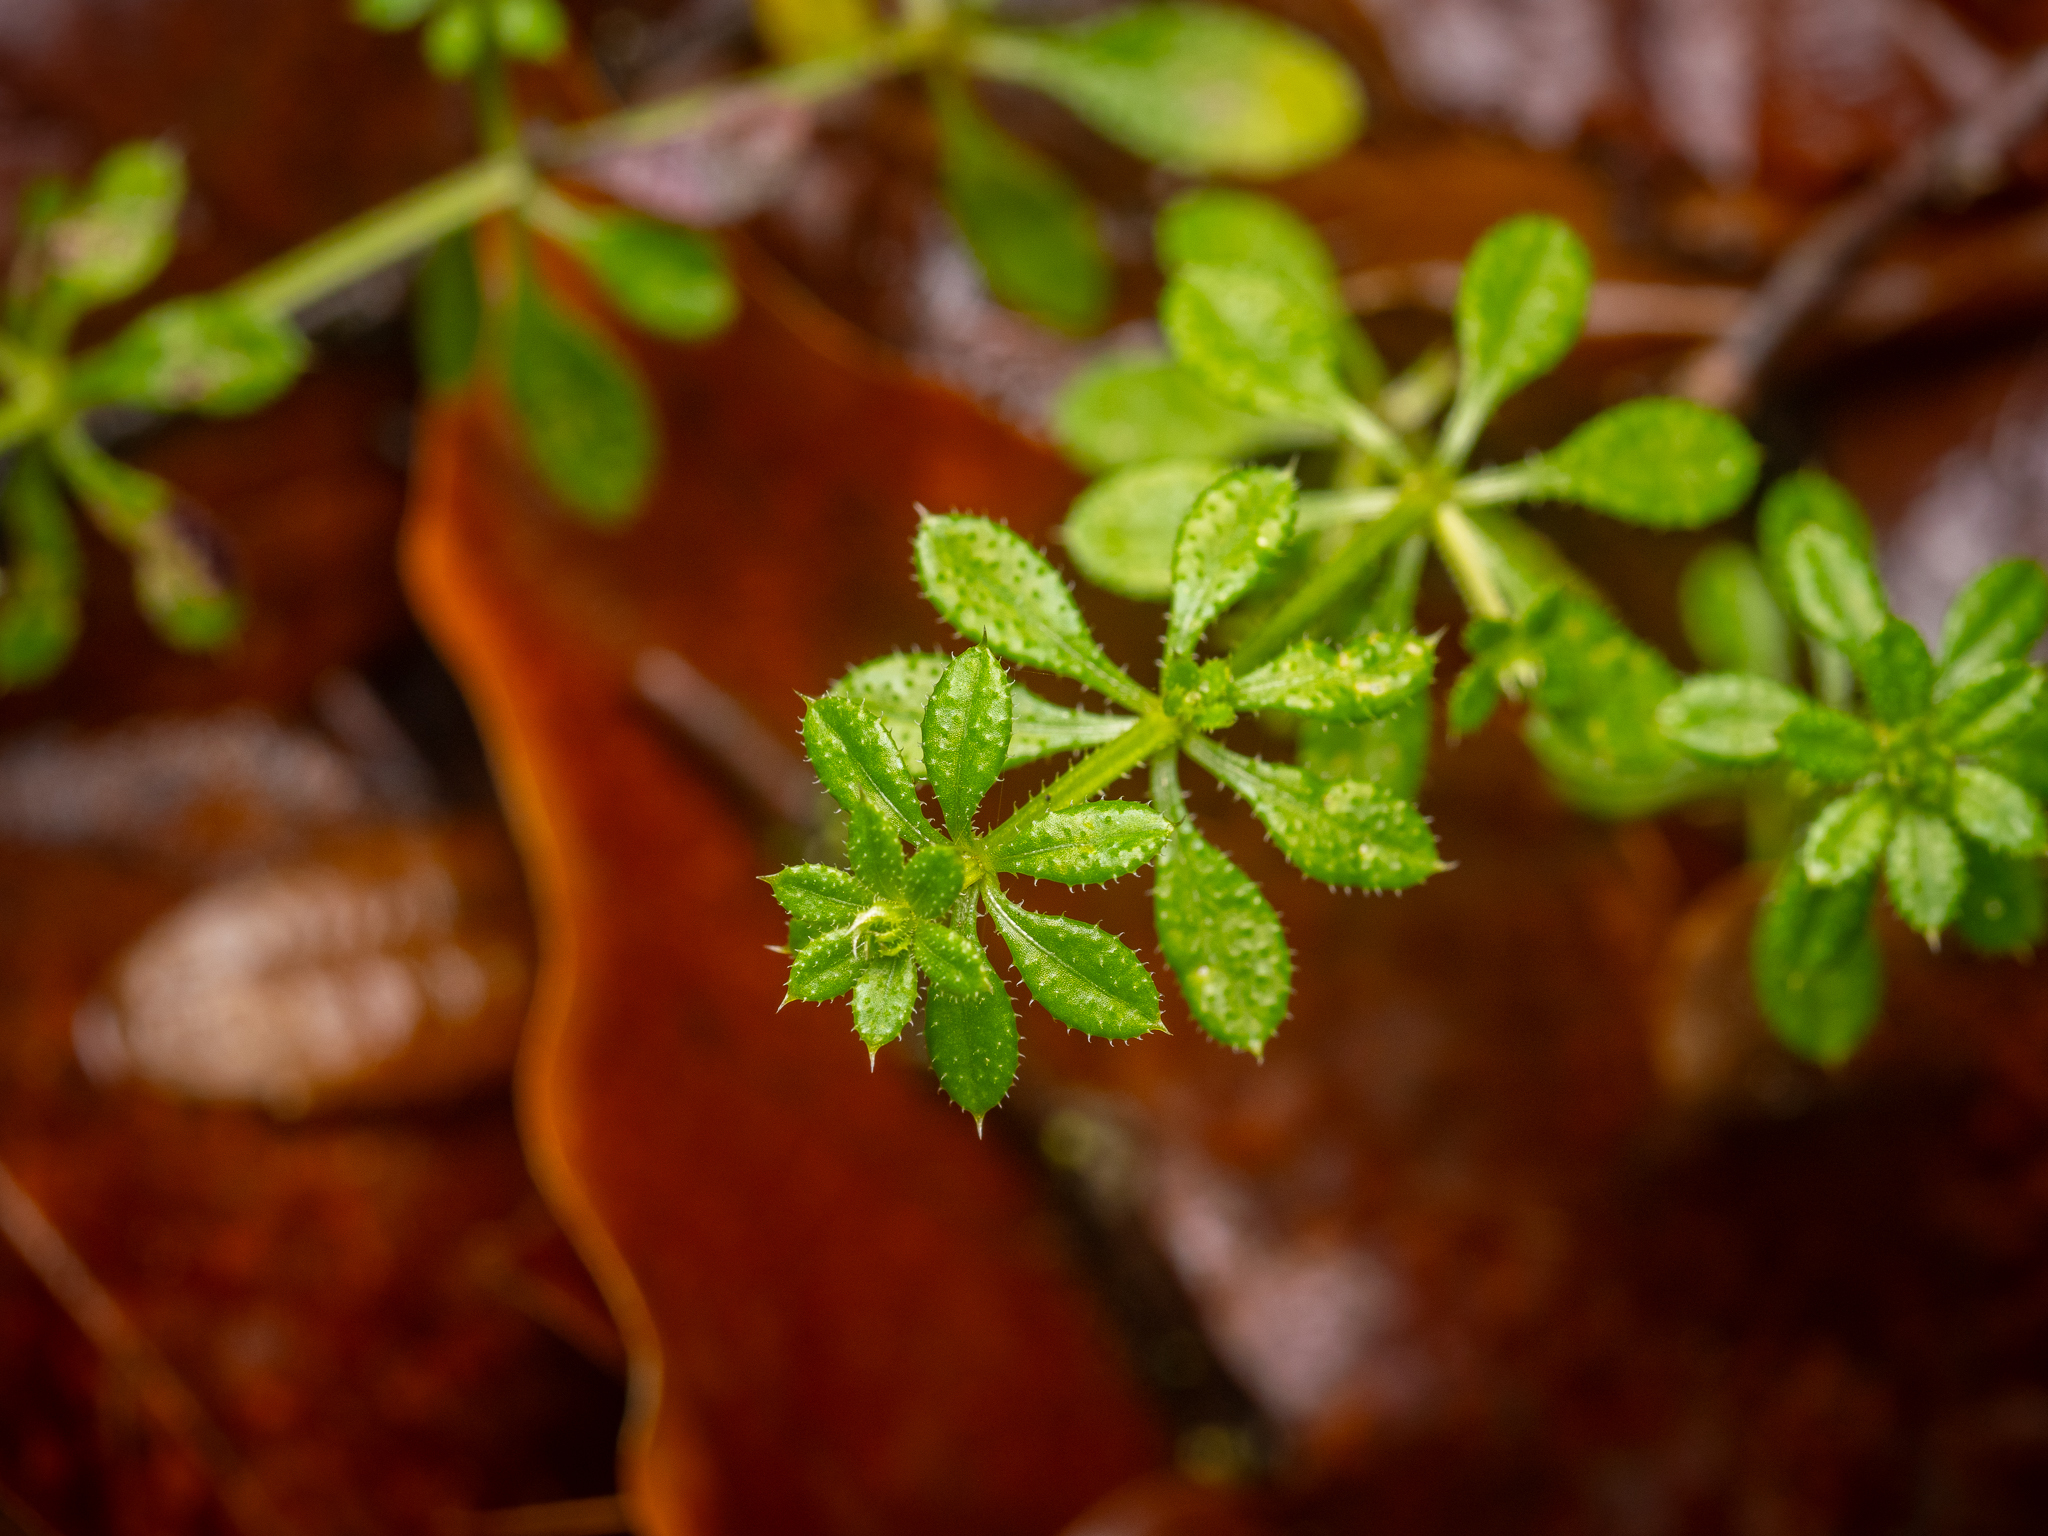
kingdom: Plantae
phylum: Tracheophyta
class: Magnoliopsida
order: Gentianales
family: Rubiaceae
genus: Galium
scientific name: Galium aparine
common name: Cleavers
